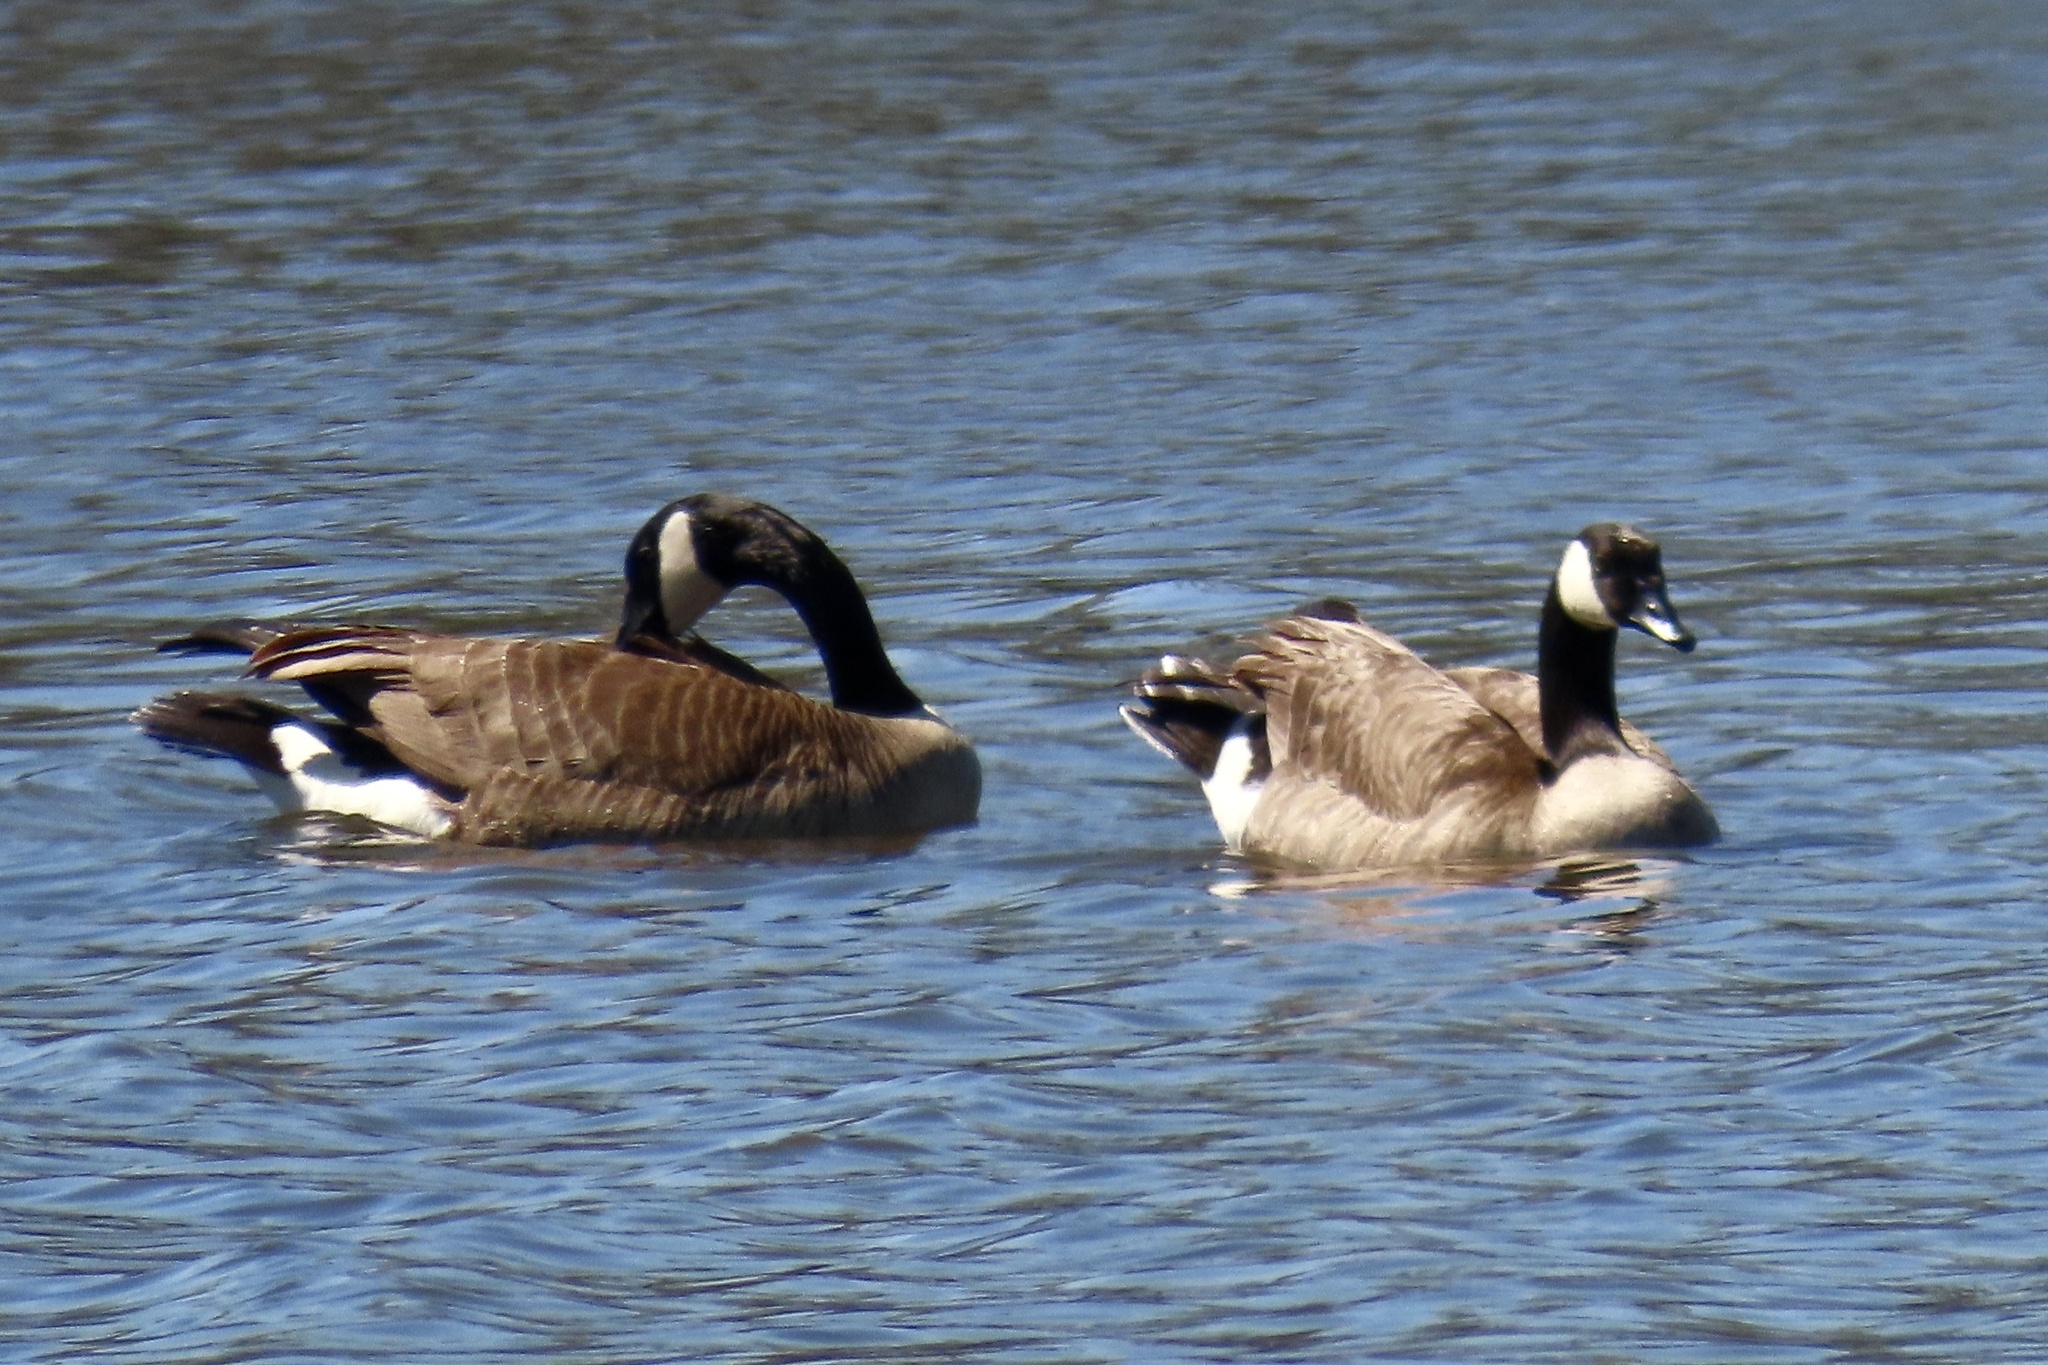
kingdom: Animalia
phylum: Chordata
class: Aves
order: Anseriformes
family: Anatidae
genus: Branta
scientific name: Branta canadensis
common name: Canada goose
